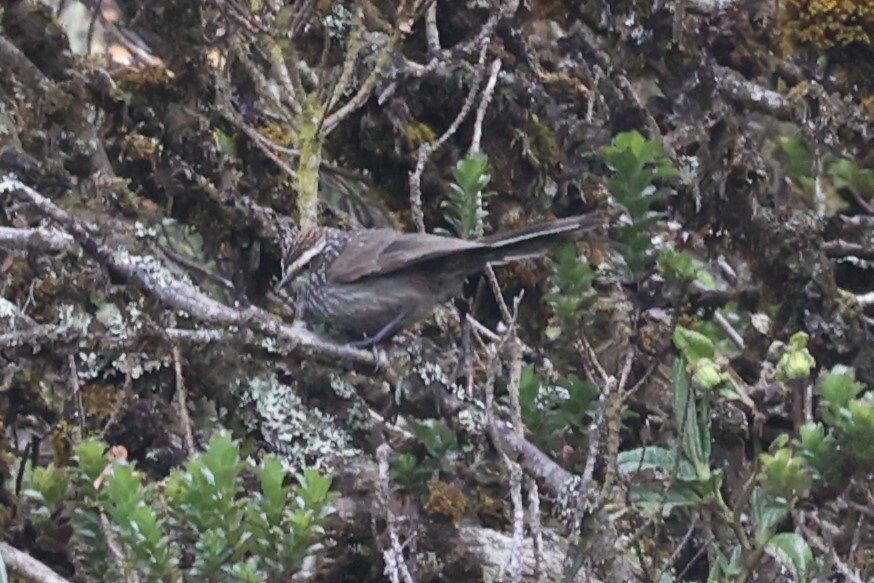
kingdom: Animalia
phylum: Chordata
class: Aves
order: Passeriformes
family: Furnariidae
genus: Leptasthenura
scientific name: Leptasthenura andicola
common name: Andean tit-spinetail
